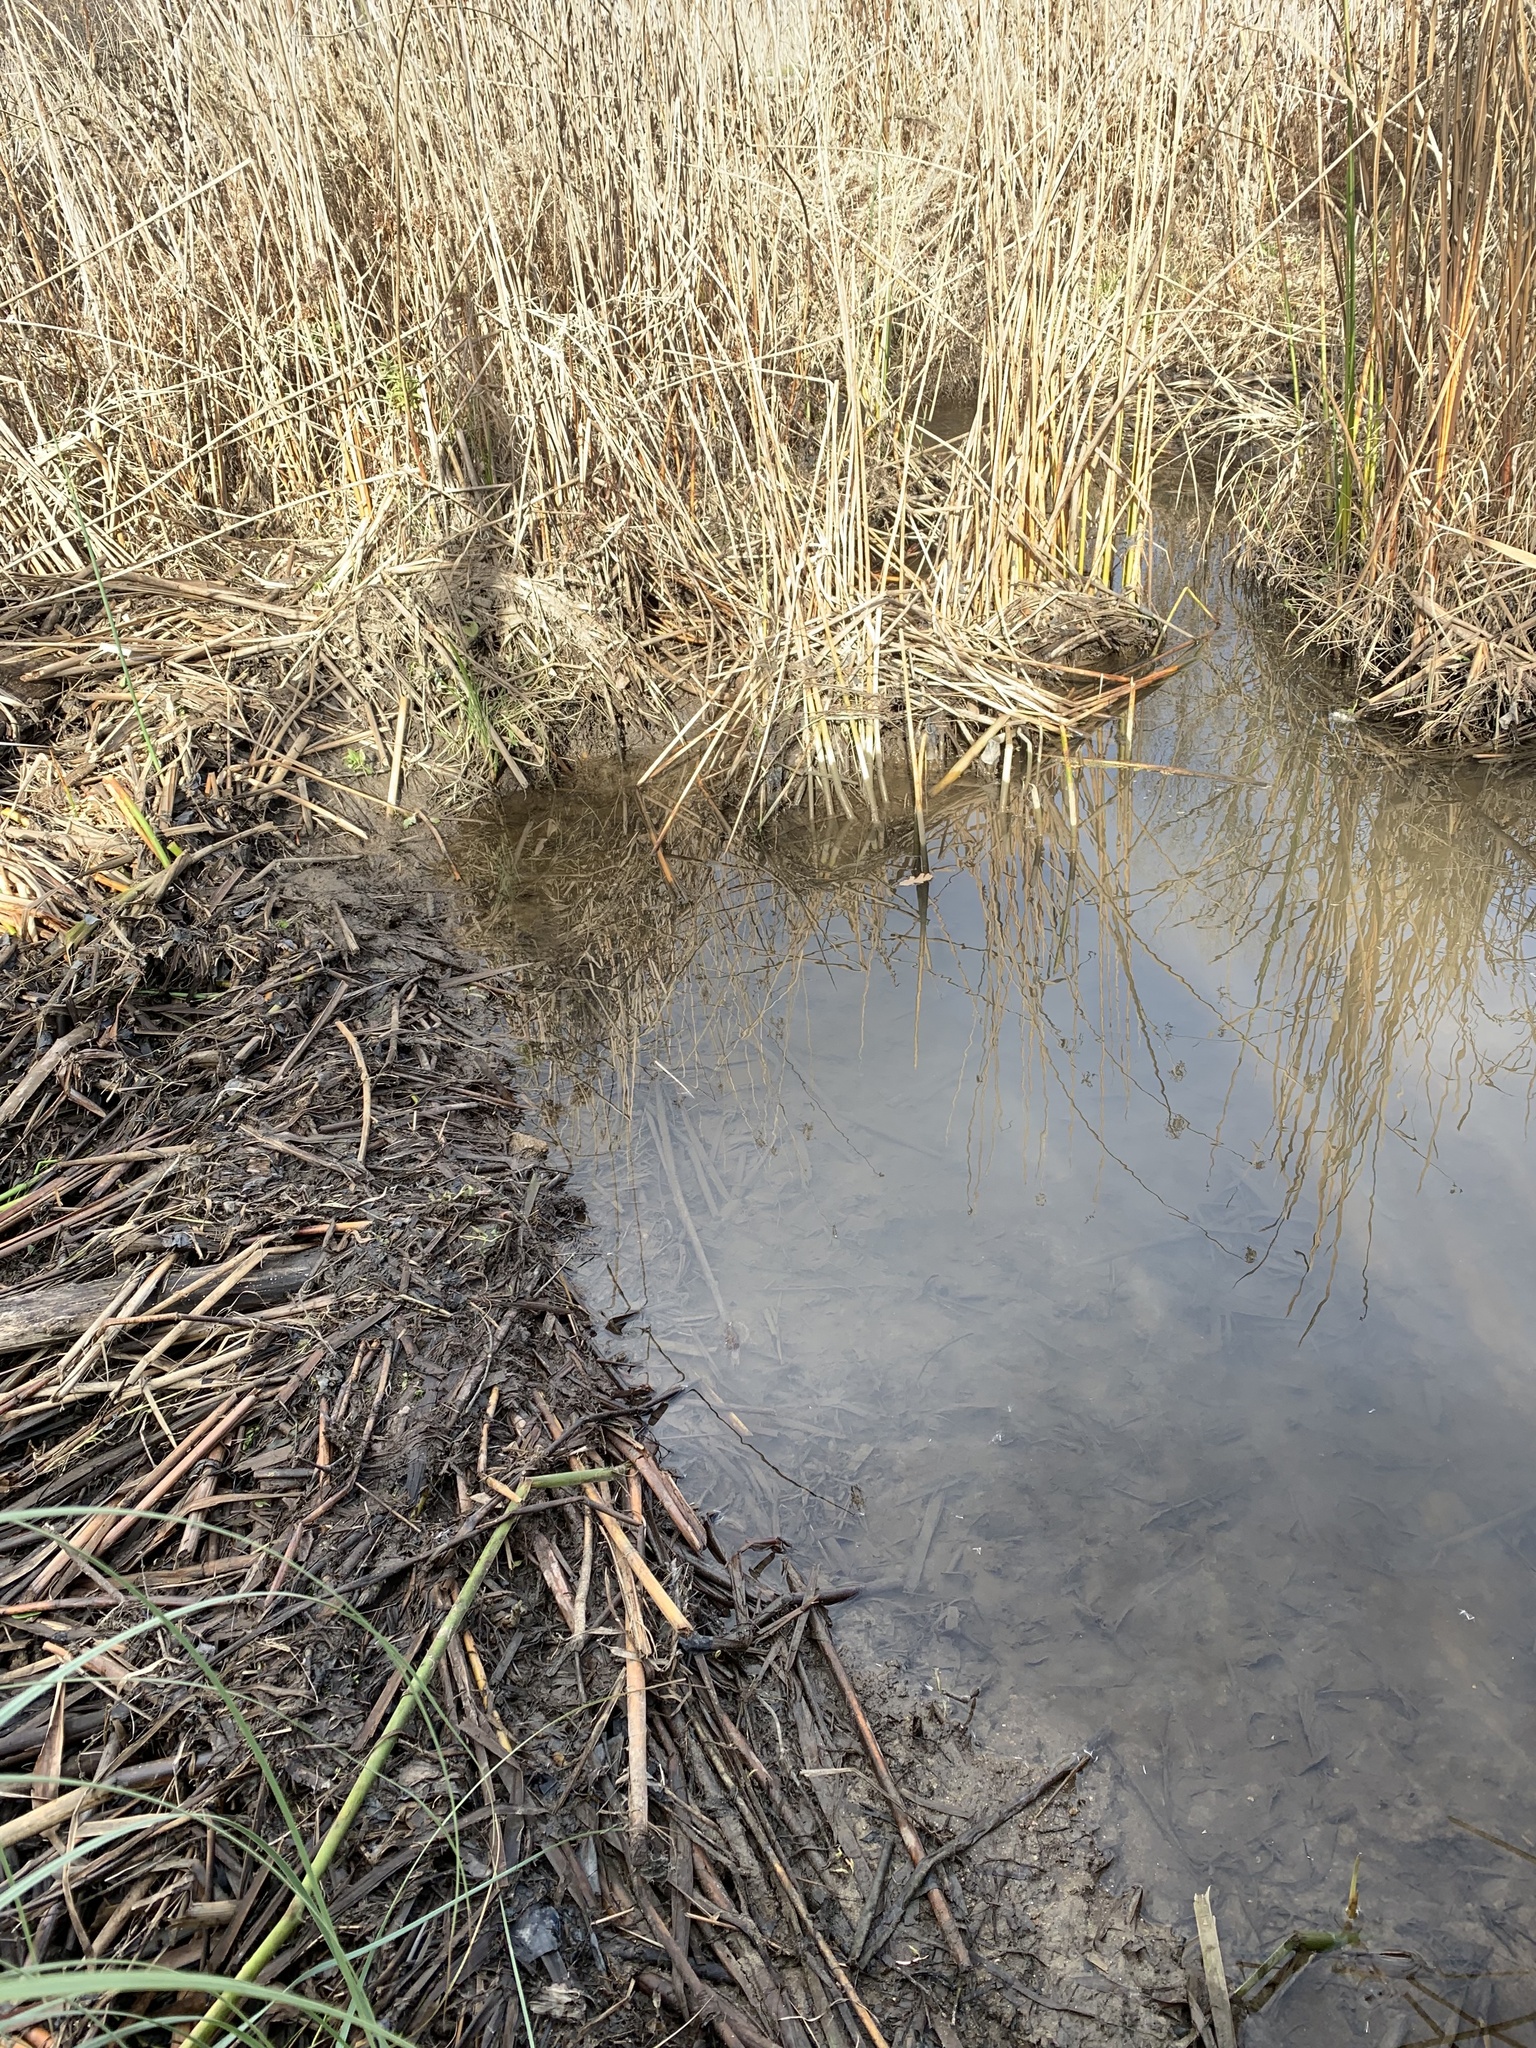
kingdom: Animalia
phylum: Chordata
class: Mammalia
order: Rodentia
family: Castoridae
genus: Castor
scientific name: Castor canadensis
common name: American beaver
